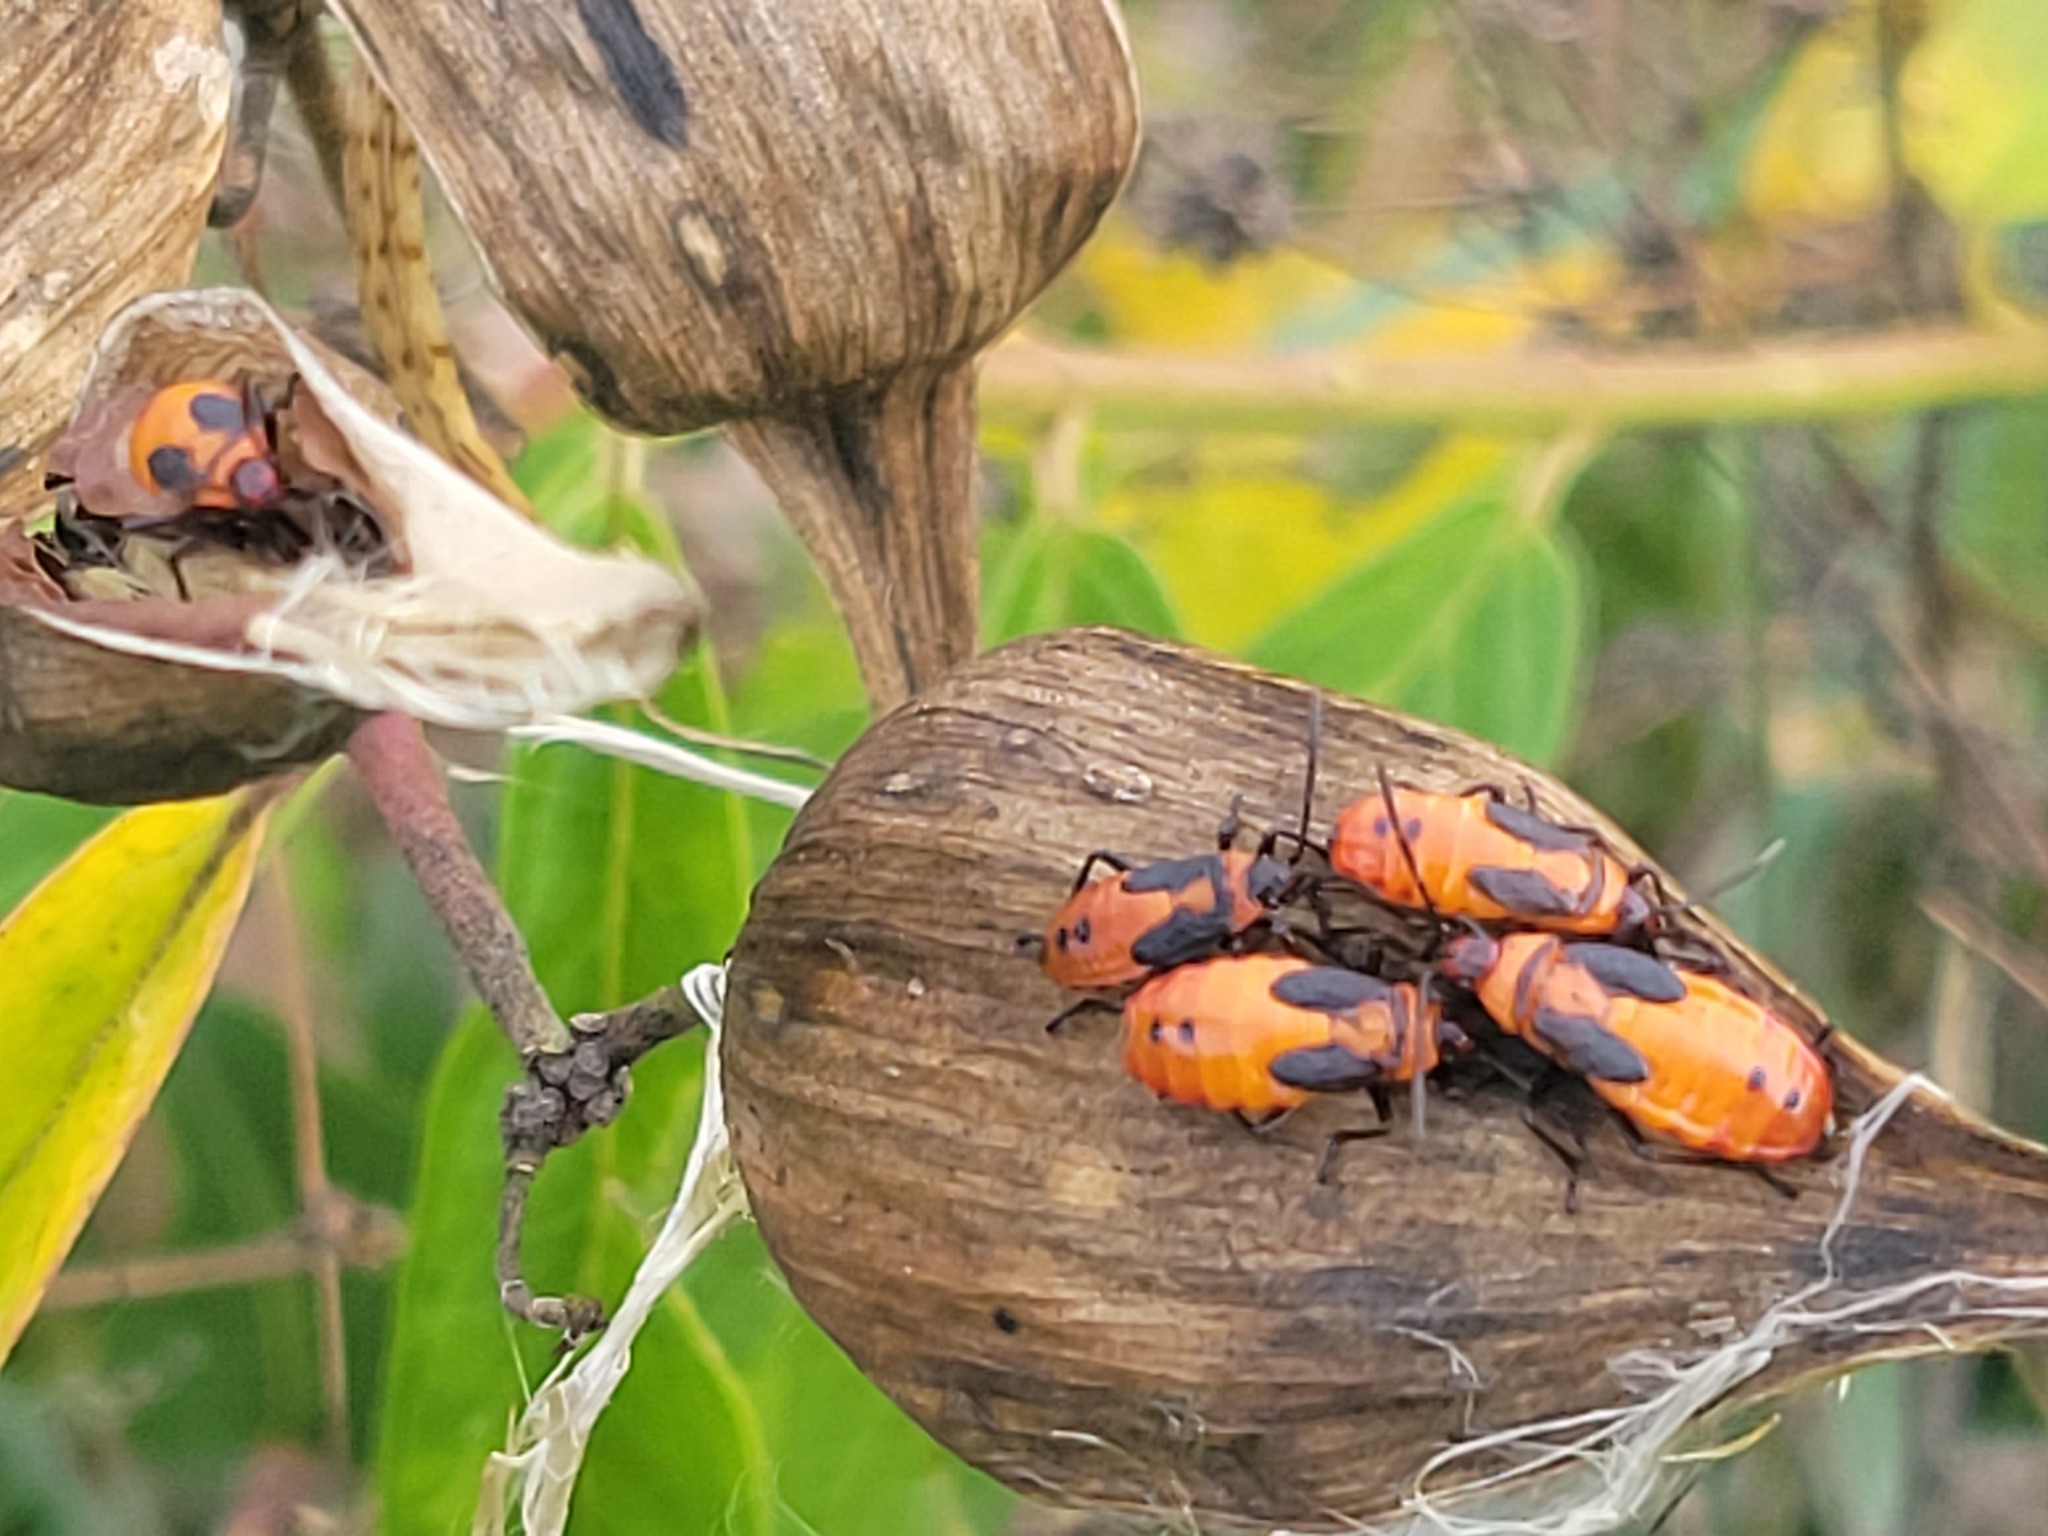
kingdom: Animalia
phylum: Arthropoda
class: Insecta
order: Hemiptera
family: Lygaeidae
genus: Oncopeltus
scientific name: Oncopeltus fasciatus
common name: Large milkweed bug
